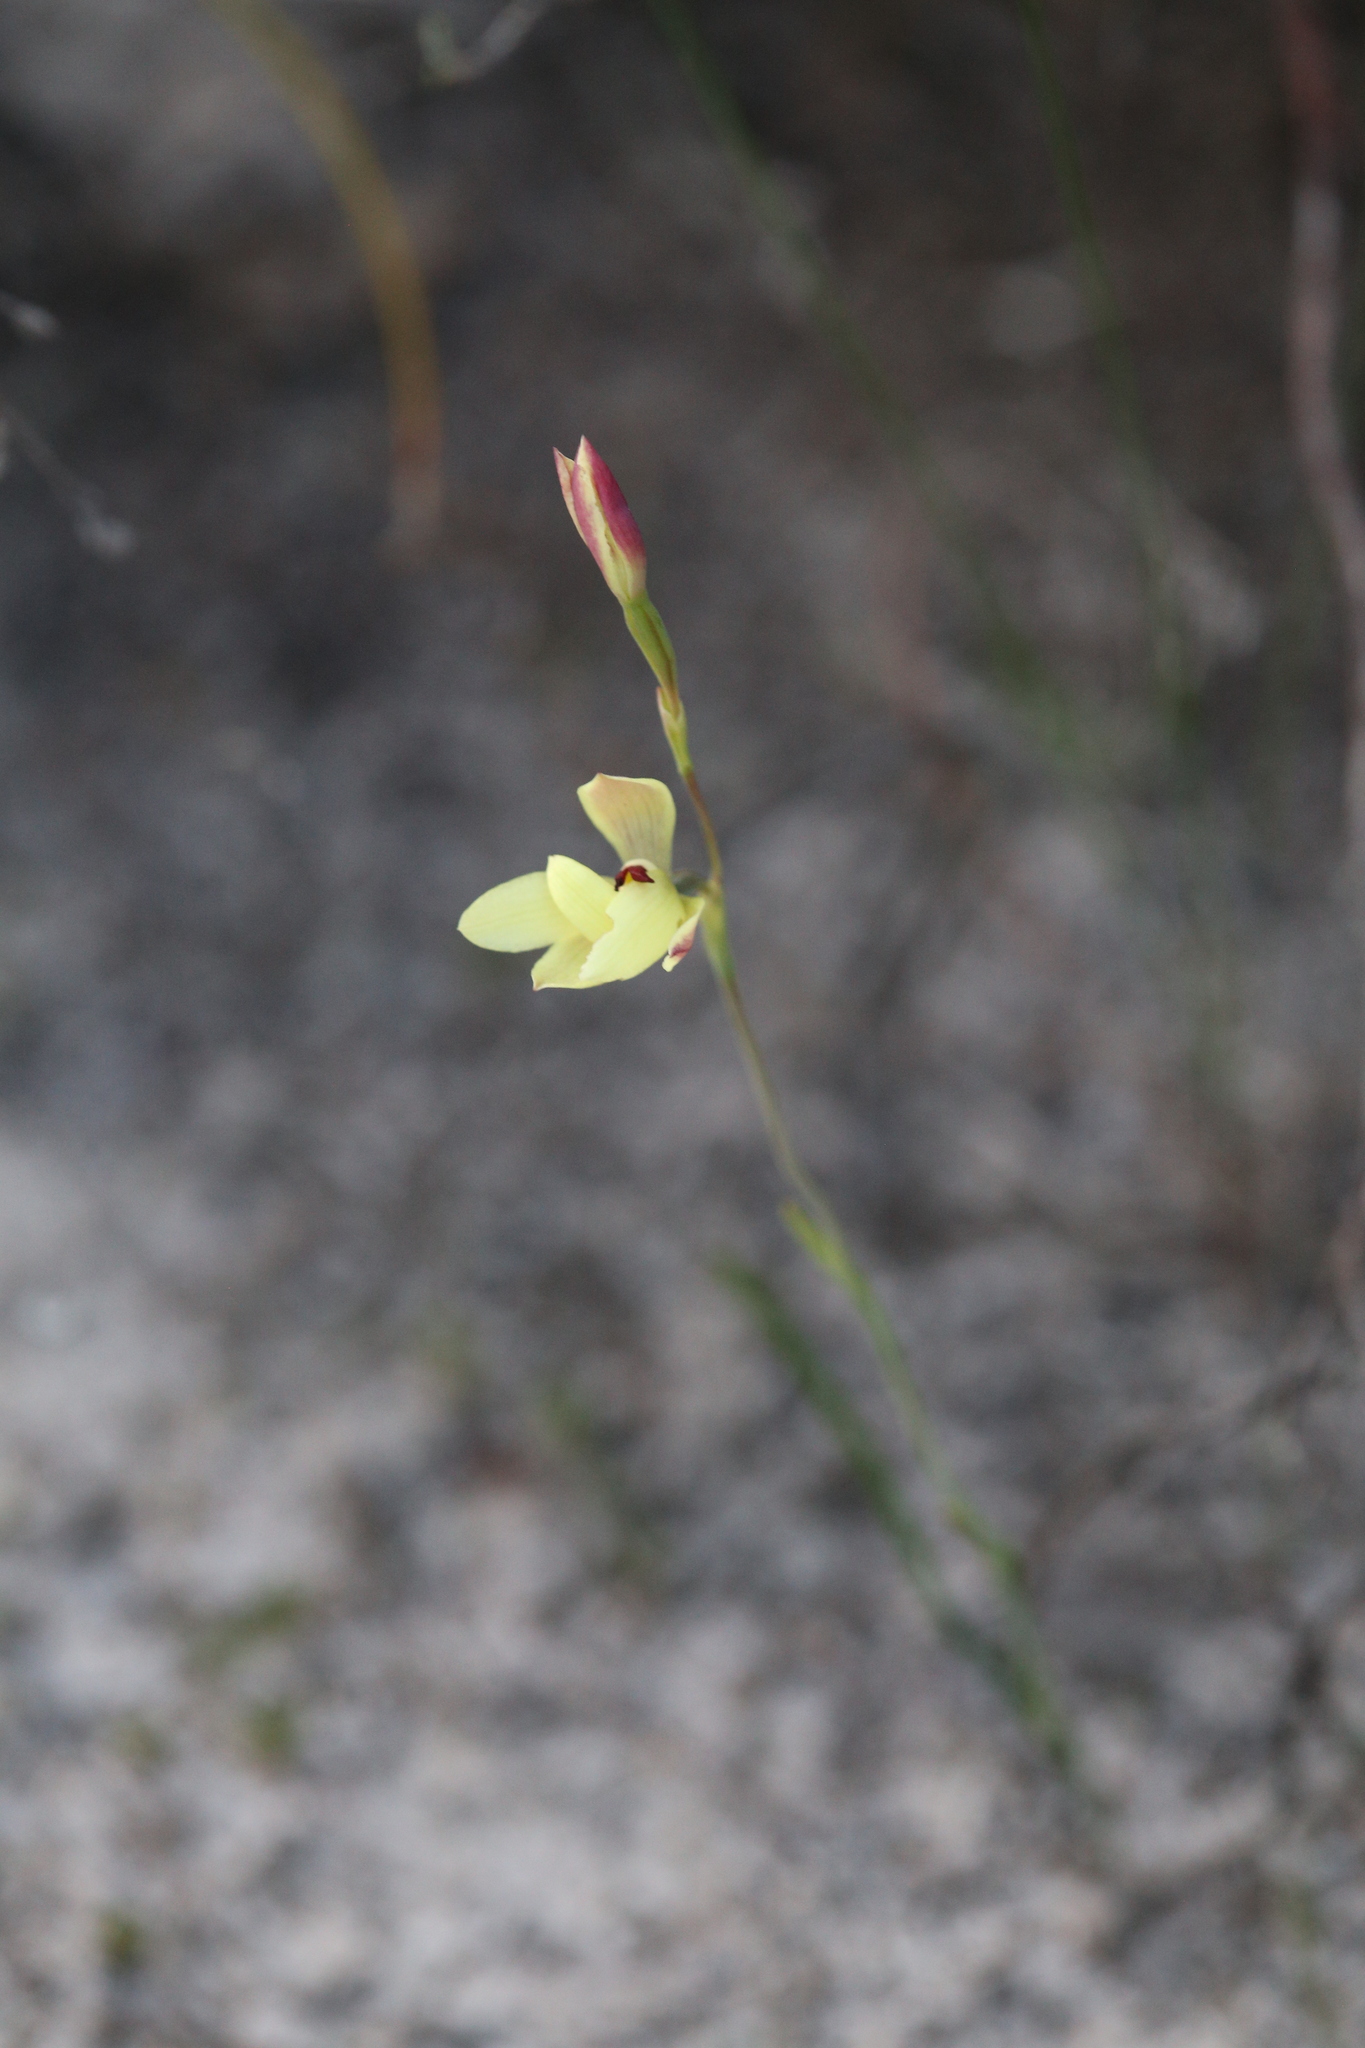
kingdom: Plantae
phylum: Tracheophyta
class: Liliopsida
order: Asparagales
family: Orchidaceae
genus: Thelymitra
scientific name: Thelymitra antennifera
